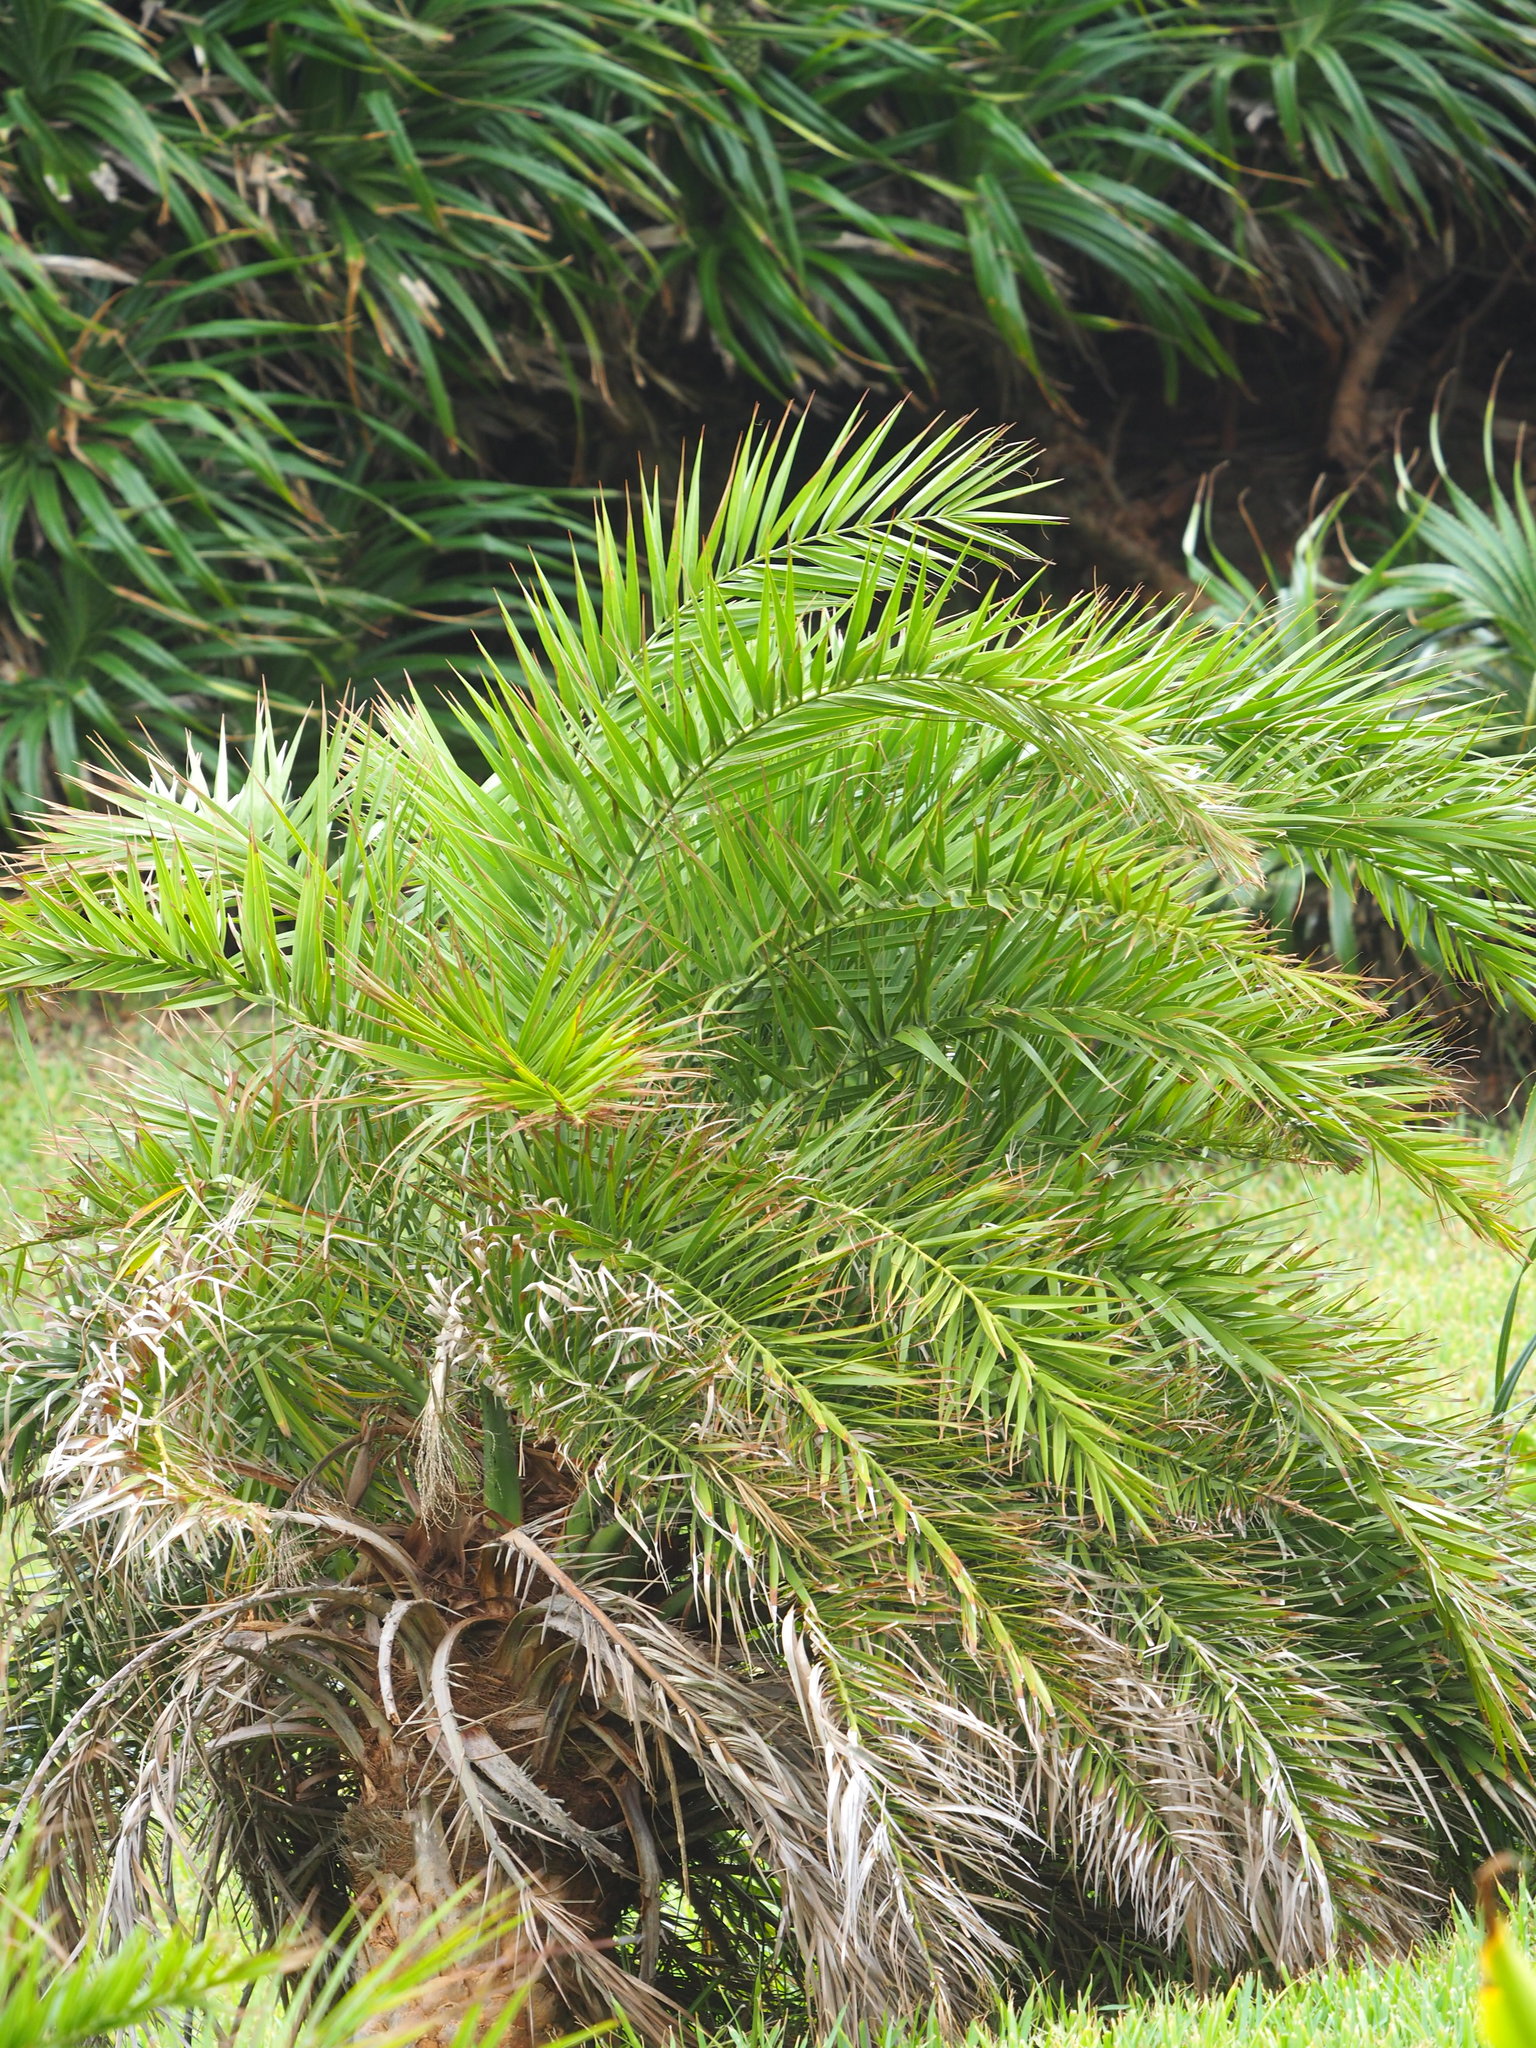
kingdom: Plantae
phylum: Tracheophyta
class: Liliopsida
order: Arecales
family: Arecaceae
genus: Phoenix
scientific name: Phoenix loureiroi
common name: Loureiro's palm
